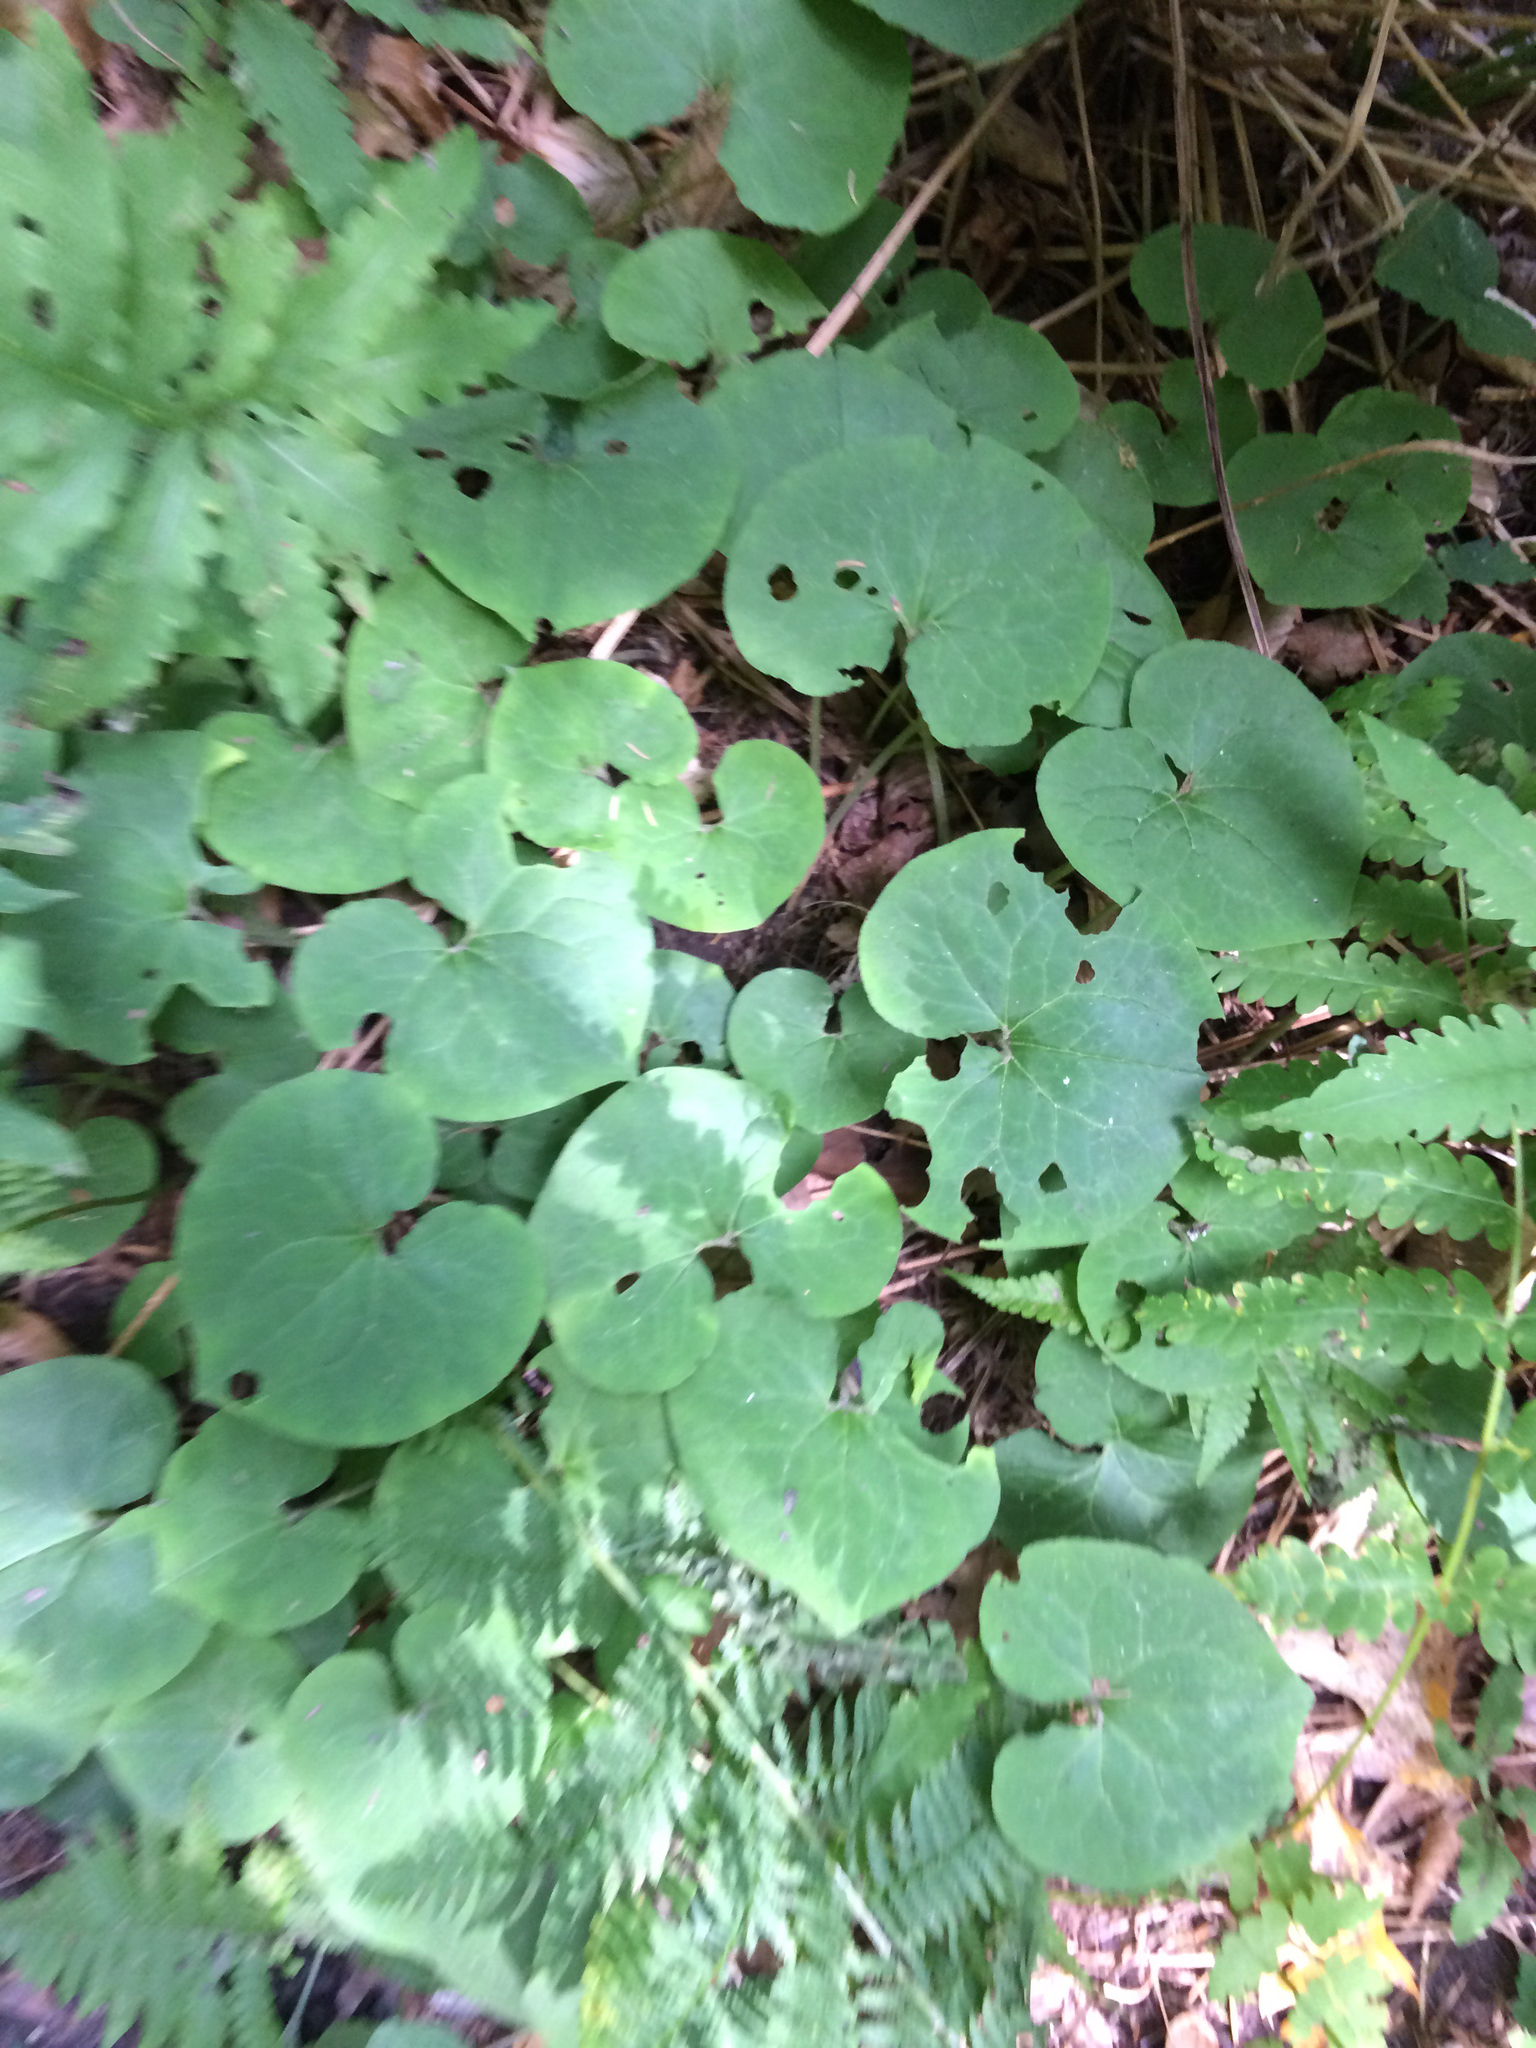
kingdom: Plantae
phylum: Tracheophyta
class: Magnoliopsida
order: Piperales
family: Aristolochiaceae
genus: Asarum
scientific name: Asarum canadense
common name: Wild ginger
